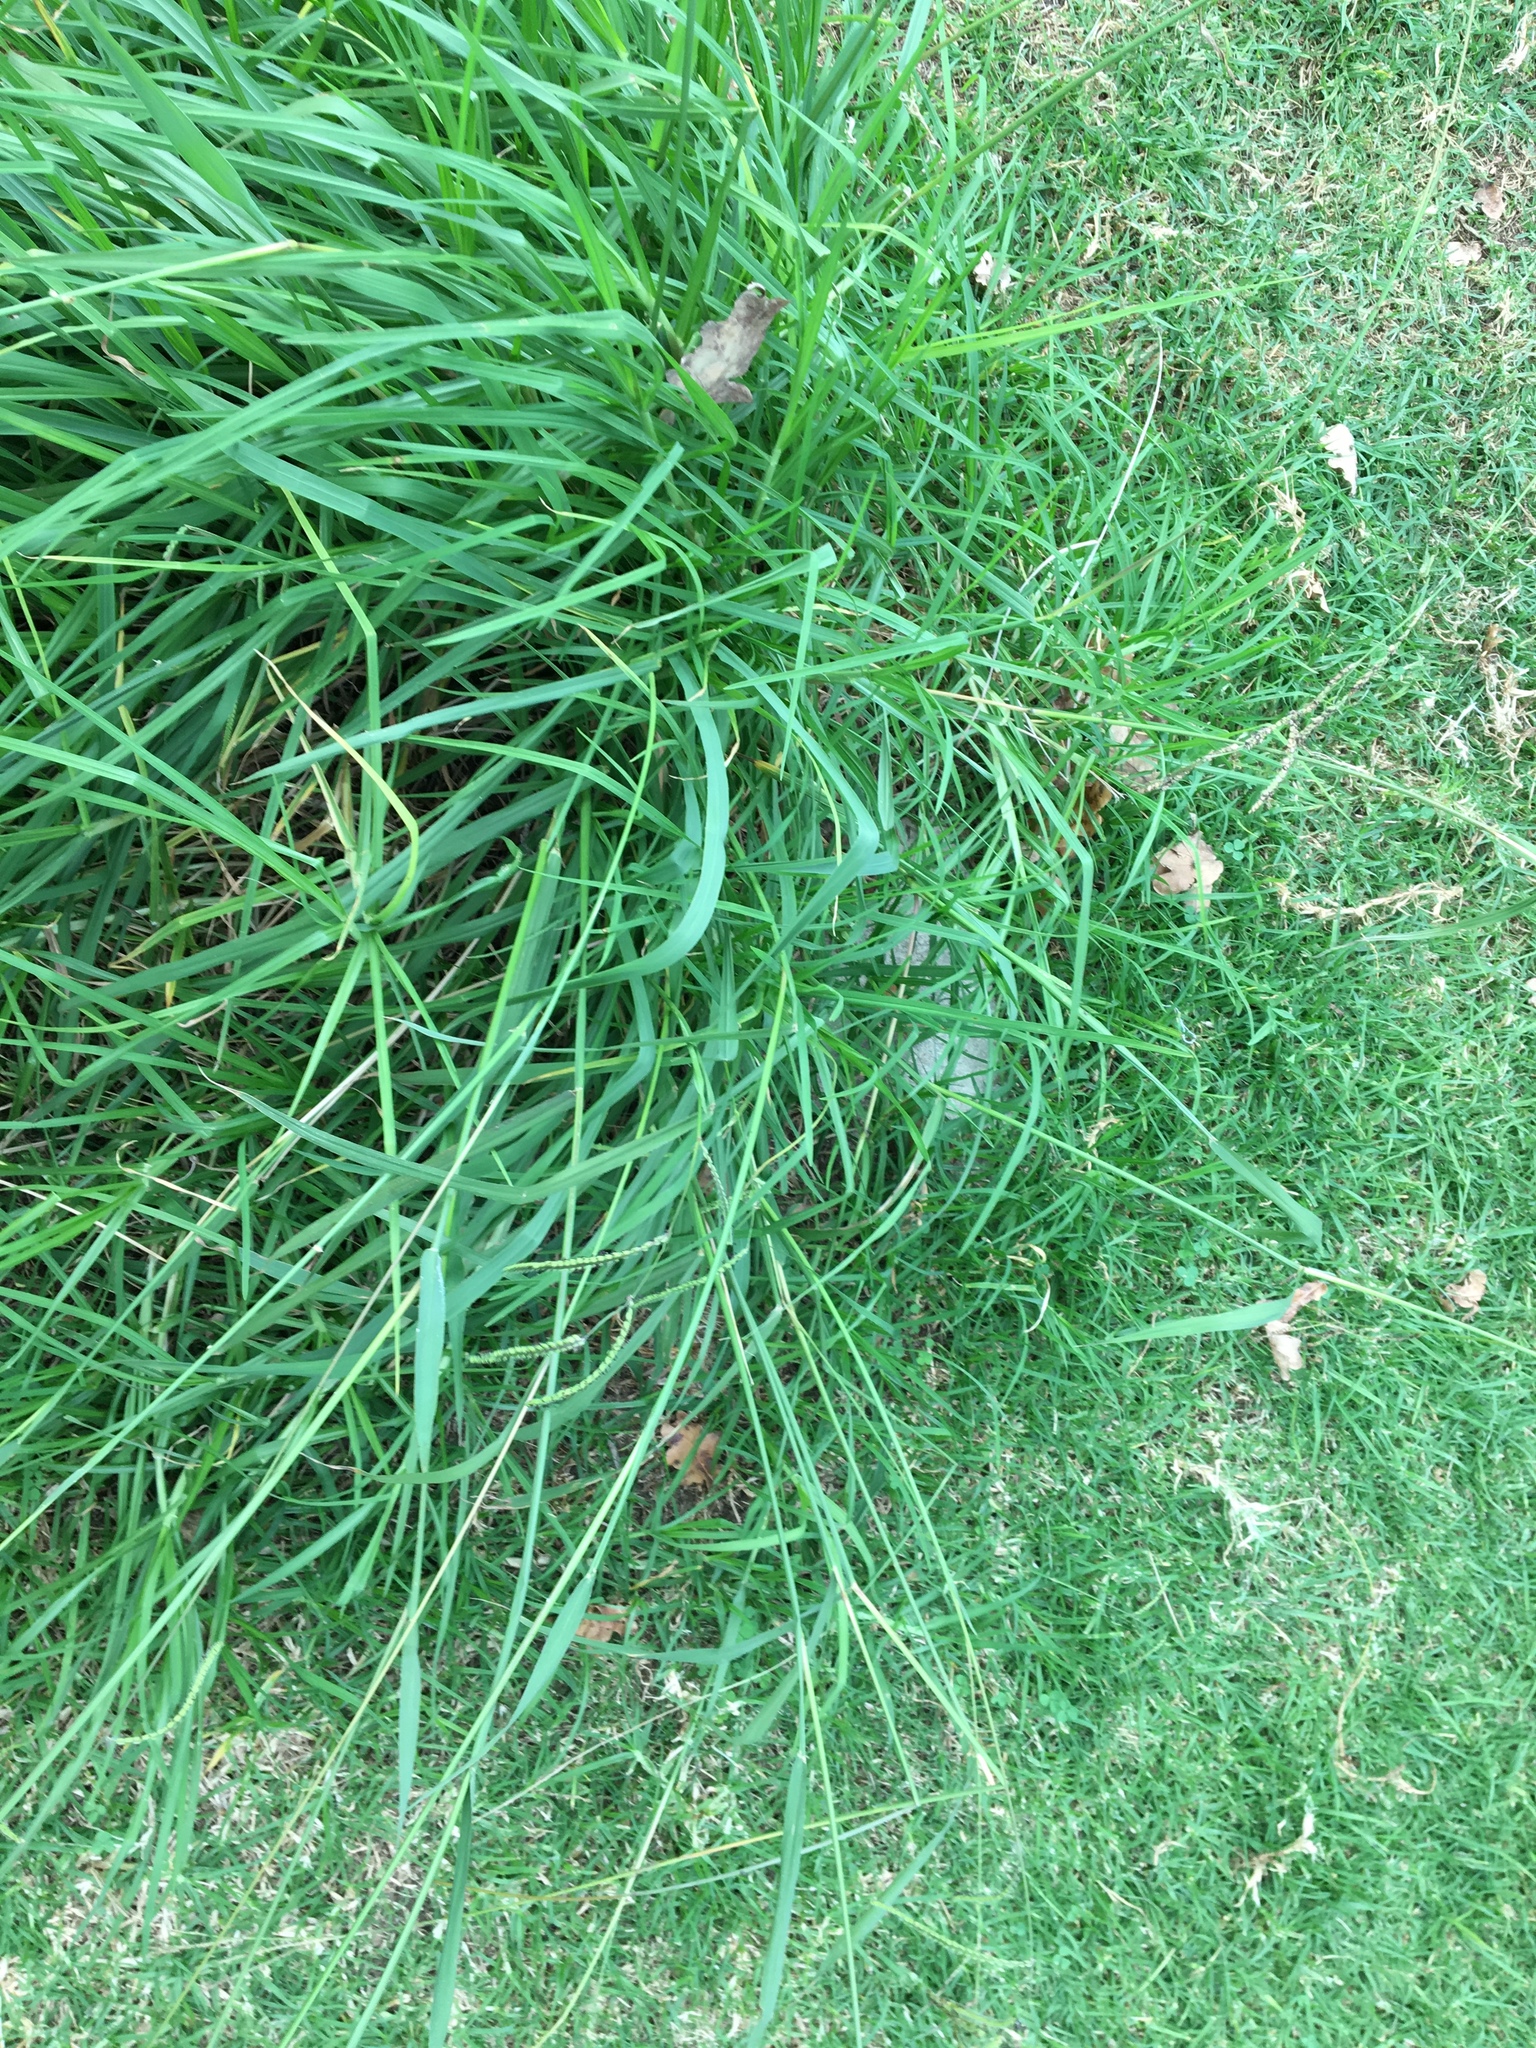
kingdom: Plantae
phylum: Tracheophyta
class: Liliopsida
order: Poales
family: Poaceae
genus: Paspalum
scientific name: Paspalum dilatatum
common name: Dallisgrass
